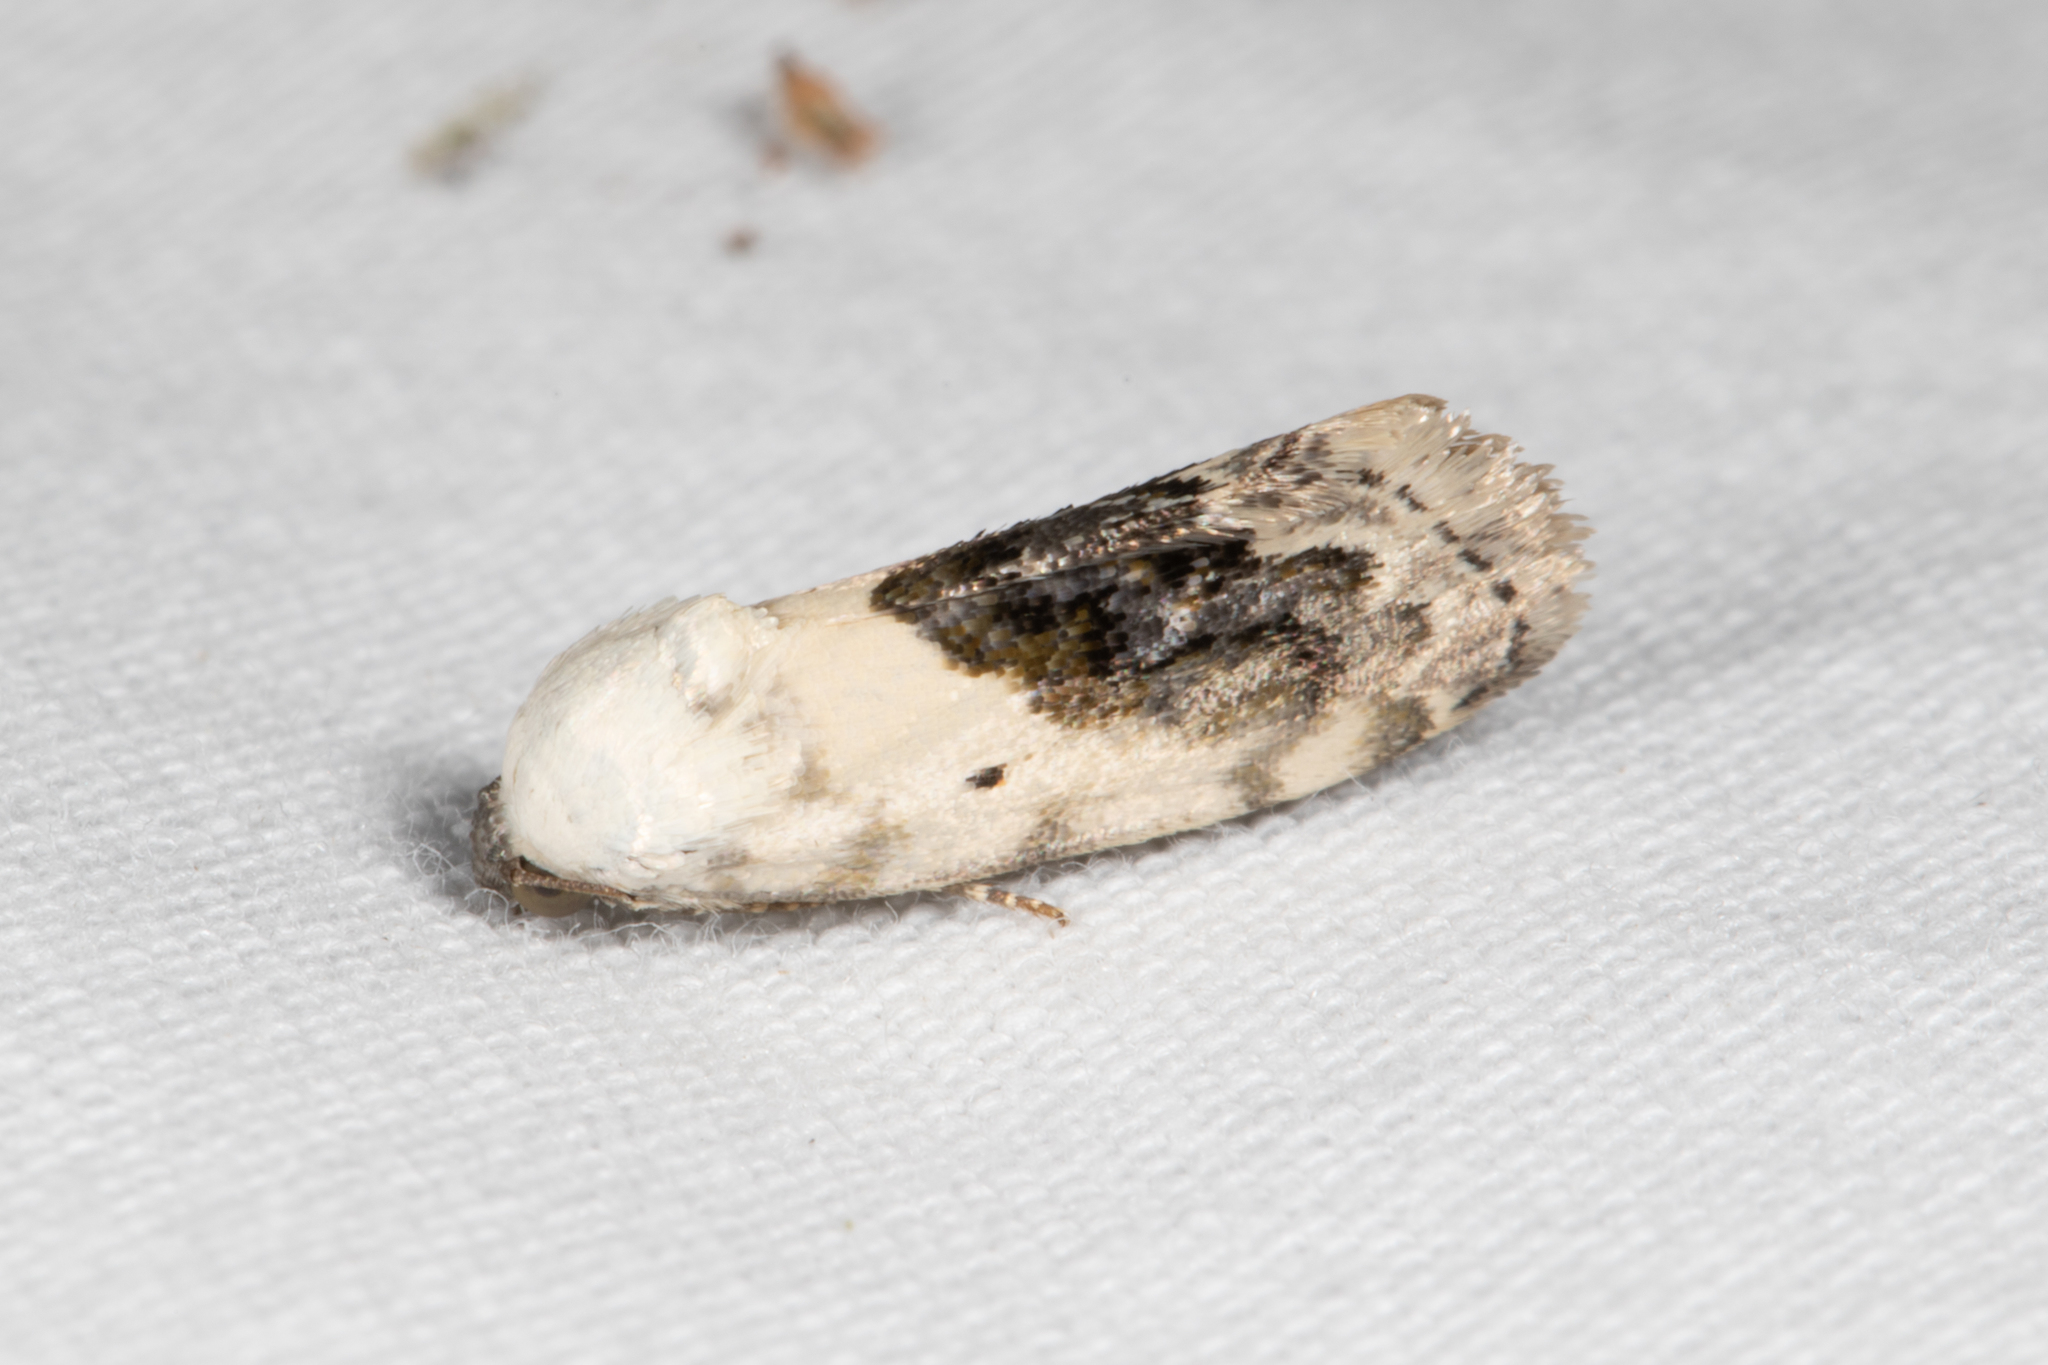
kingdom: Animalia
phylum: Arthropoda
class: Insecta
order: Lepidoptera
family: Noctuidae
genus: Acontia
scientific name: Acontia erastrioides
